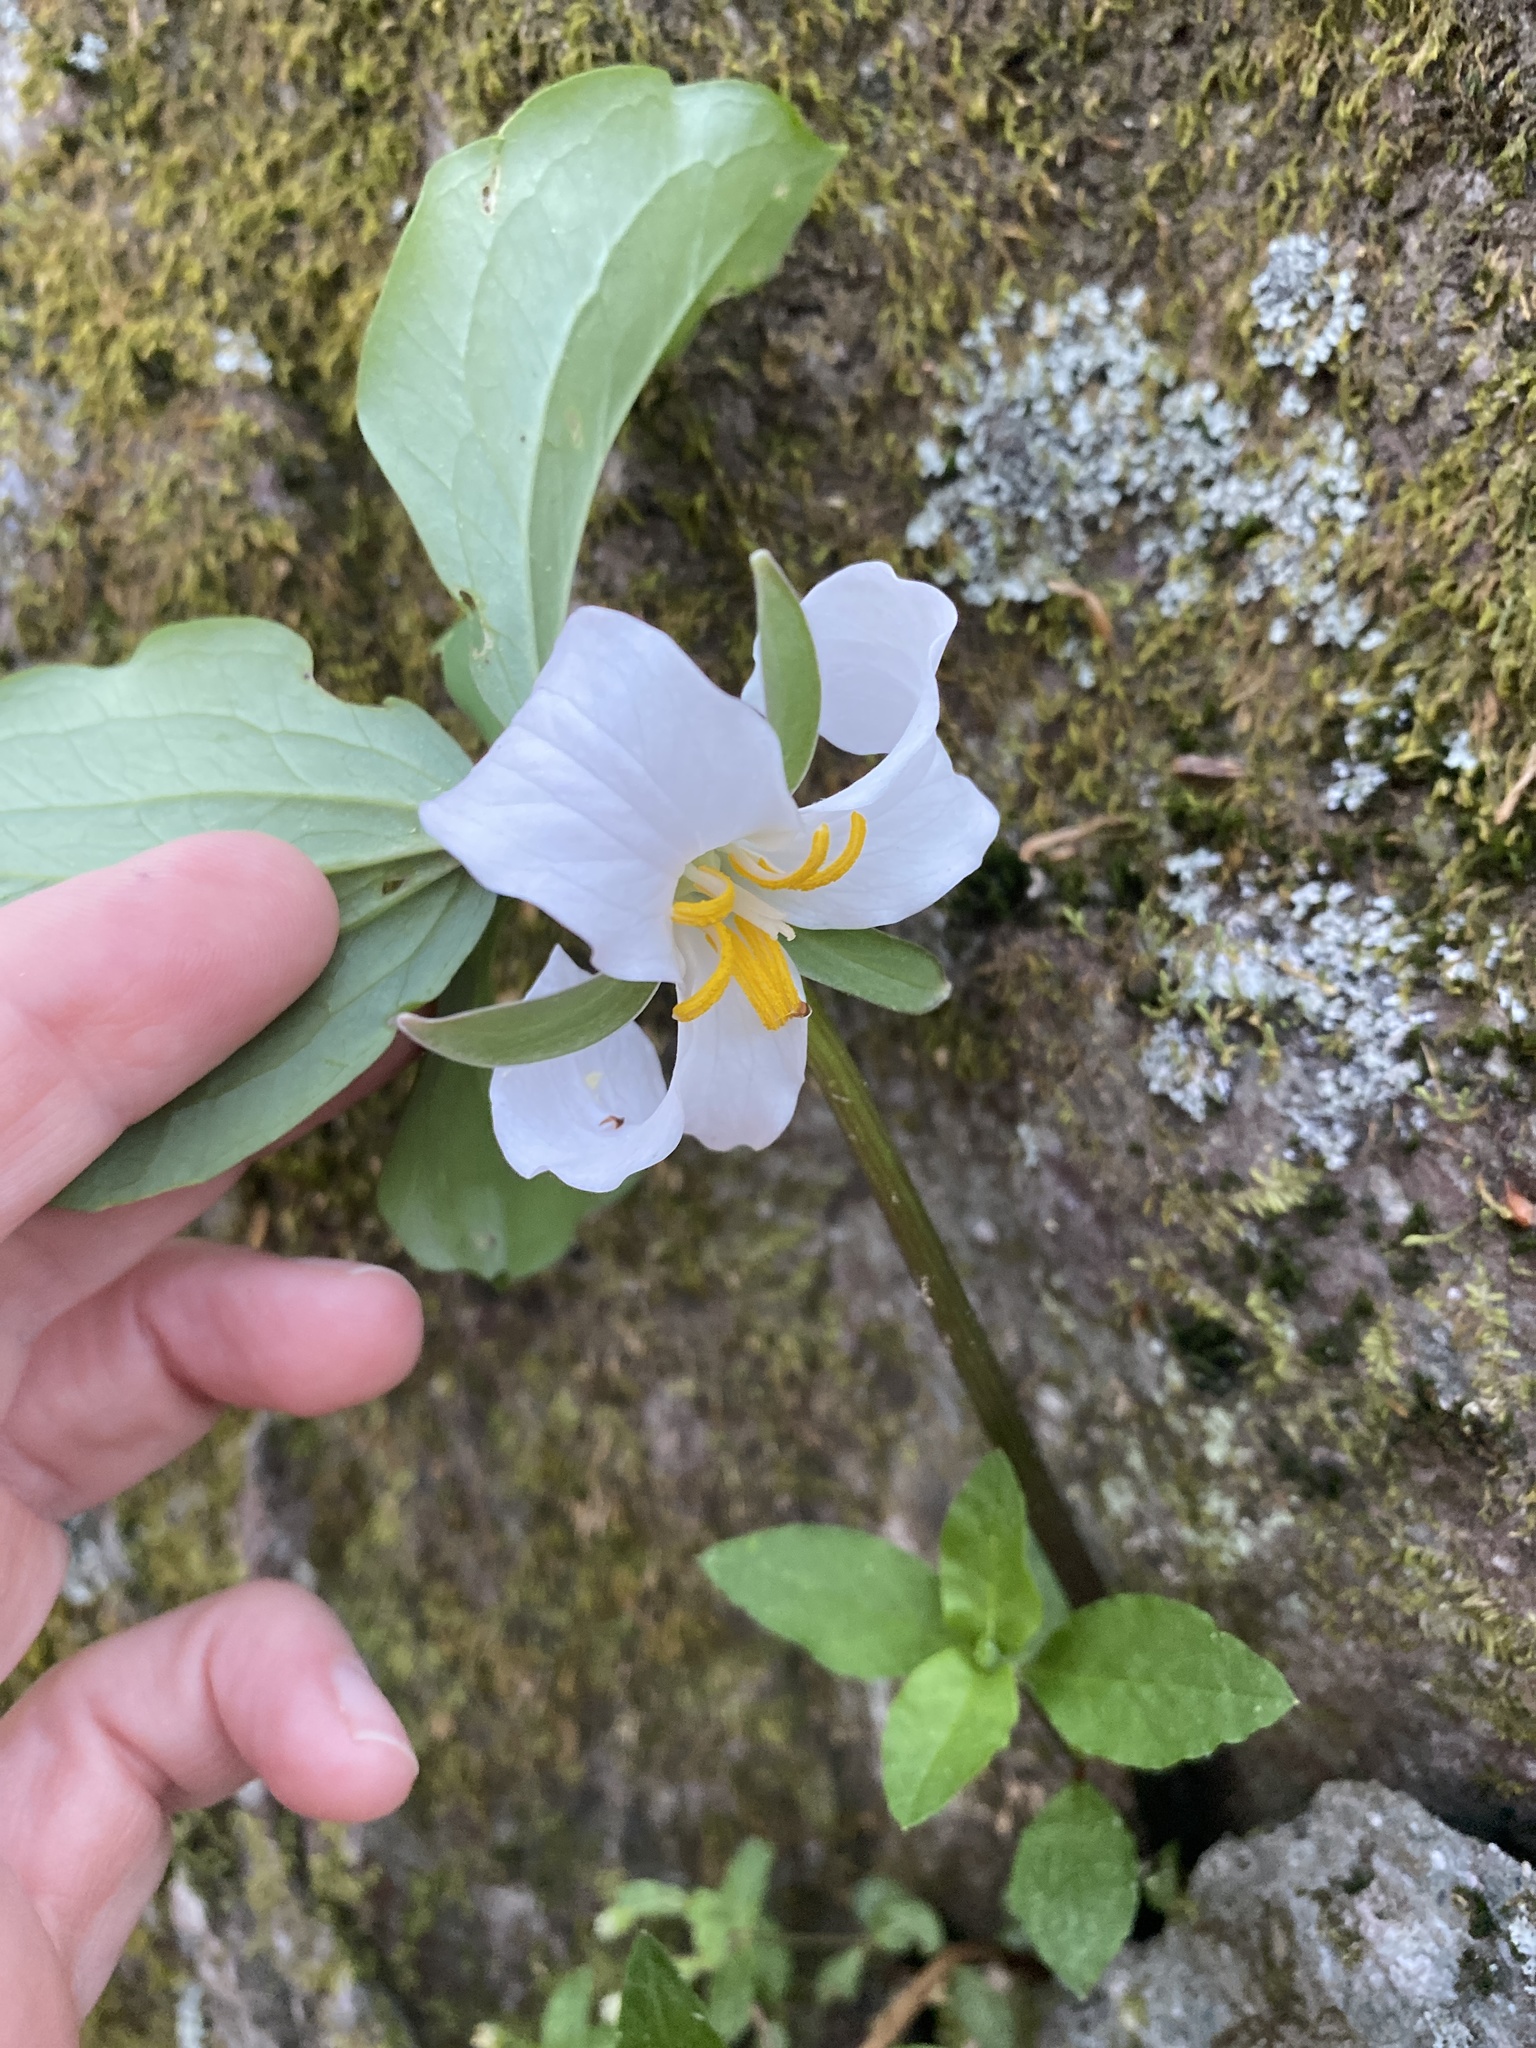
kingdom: Plantae
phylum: Tracheophyta
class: Liliopsida
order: Liliales
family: Melanthiaceae
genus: Trillium
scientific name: Trillium catesbaei
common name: Bashful trillium
